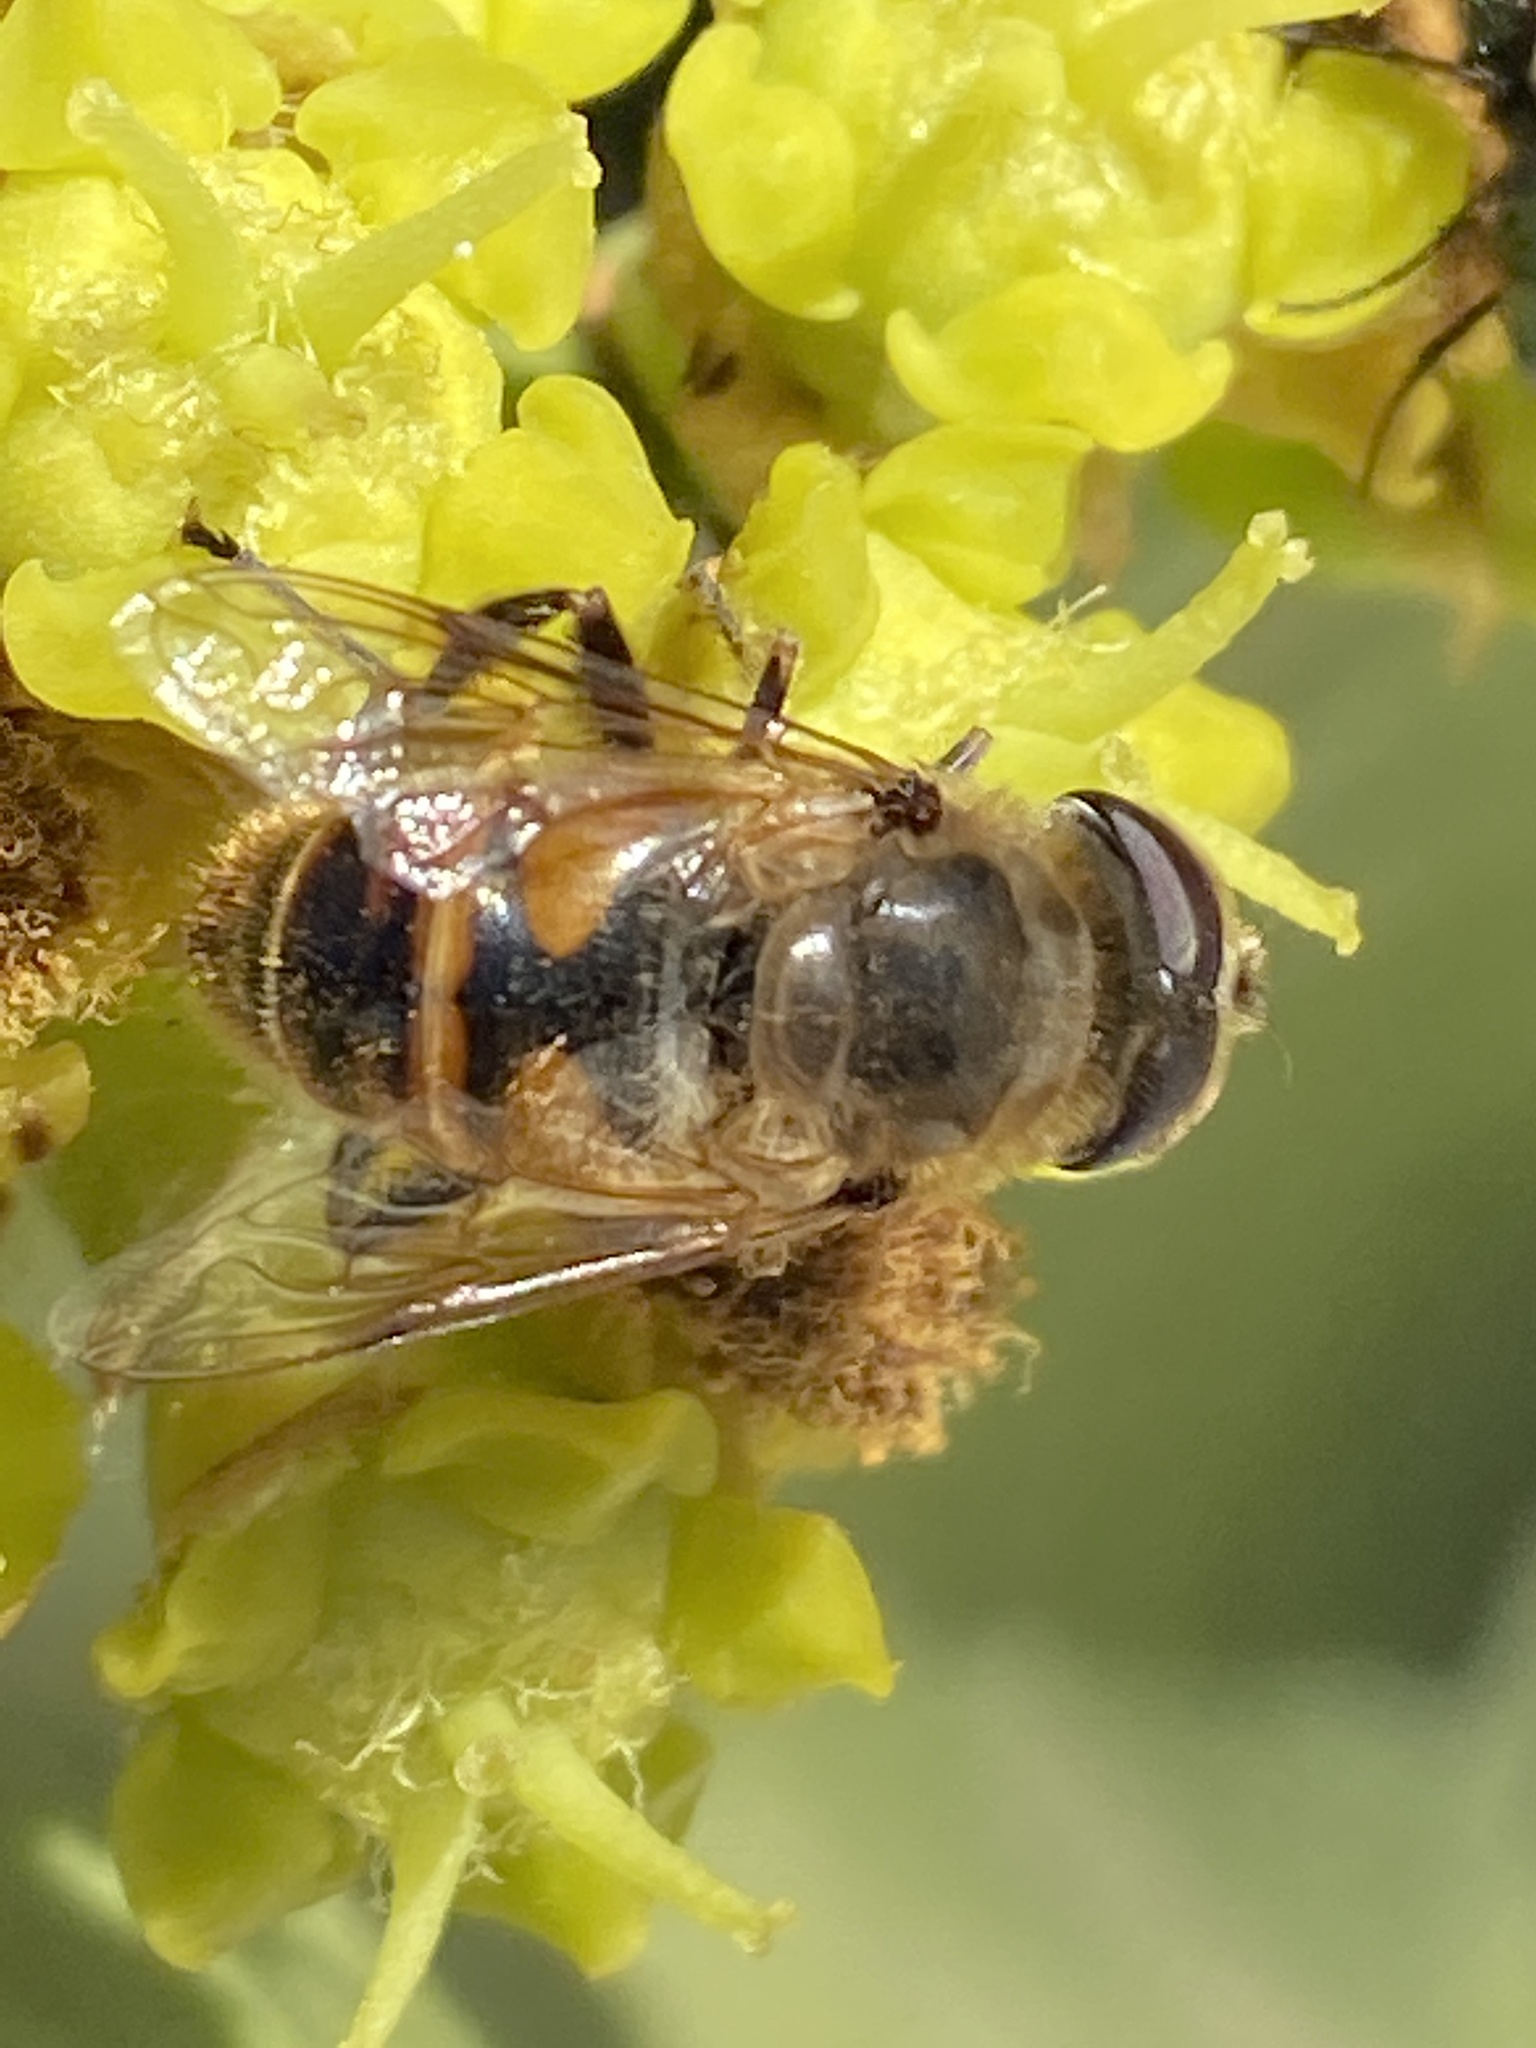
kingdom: Animalia
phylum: Arthropoda
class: Insecta
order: Diptera
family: Syrphidae
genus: Eristalis
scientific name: Eristalis tenax
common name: Drone fly
